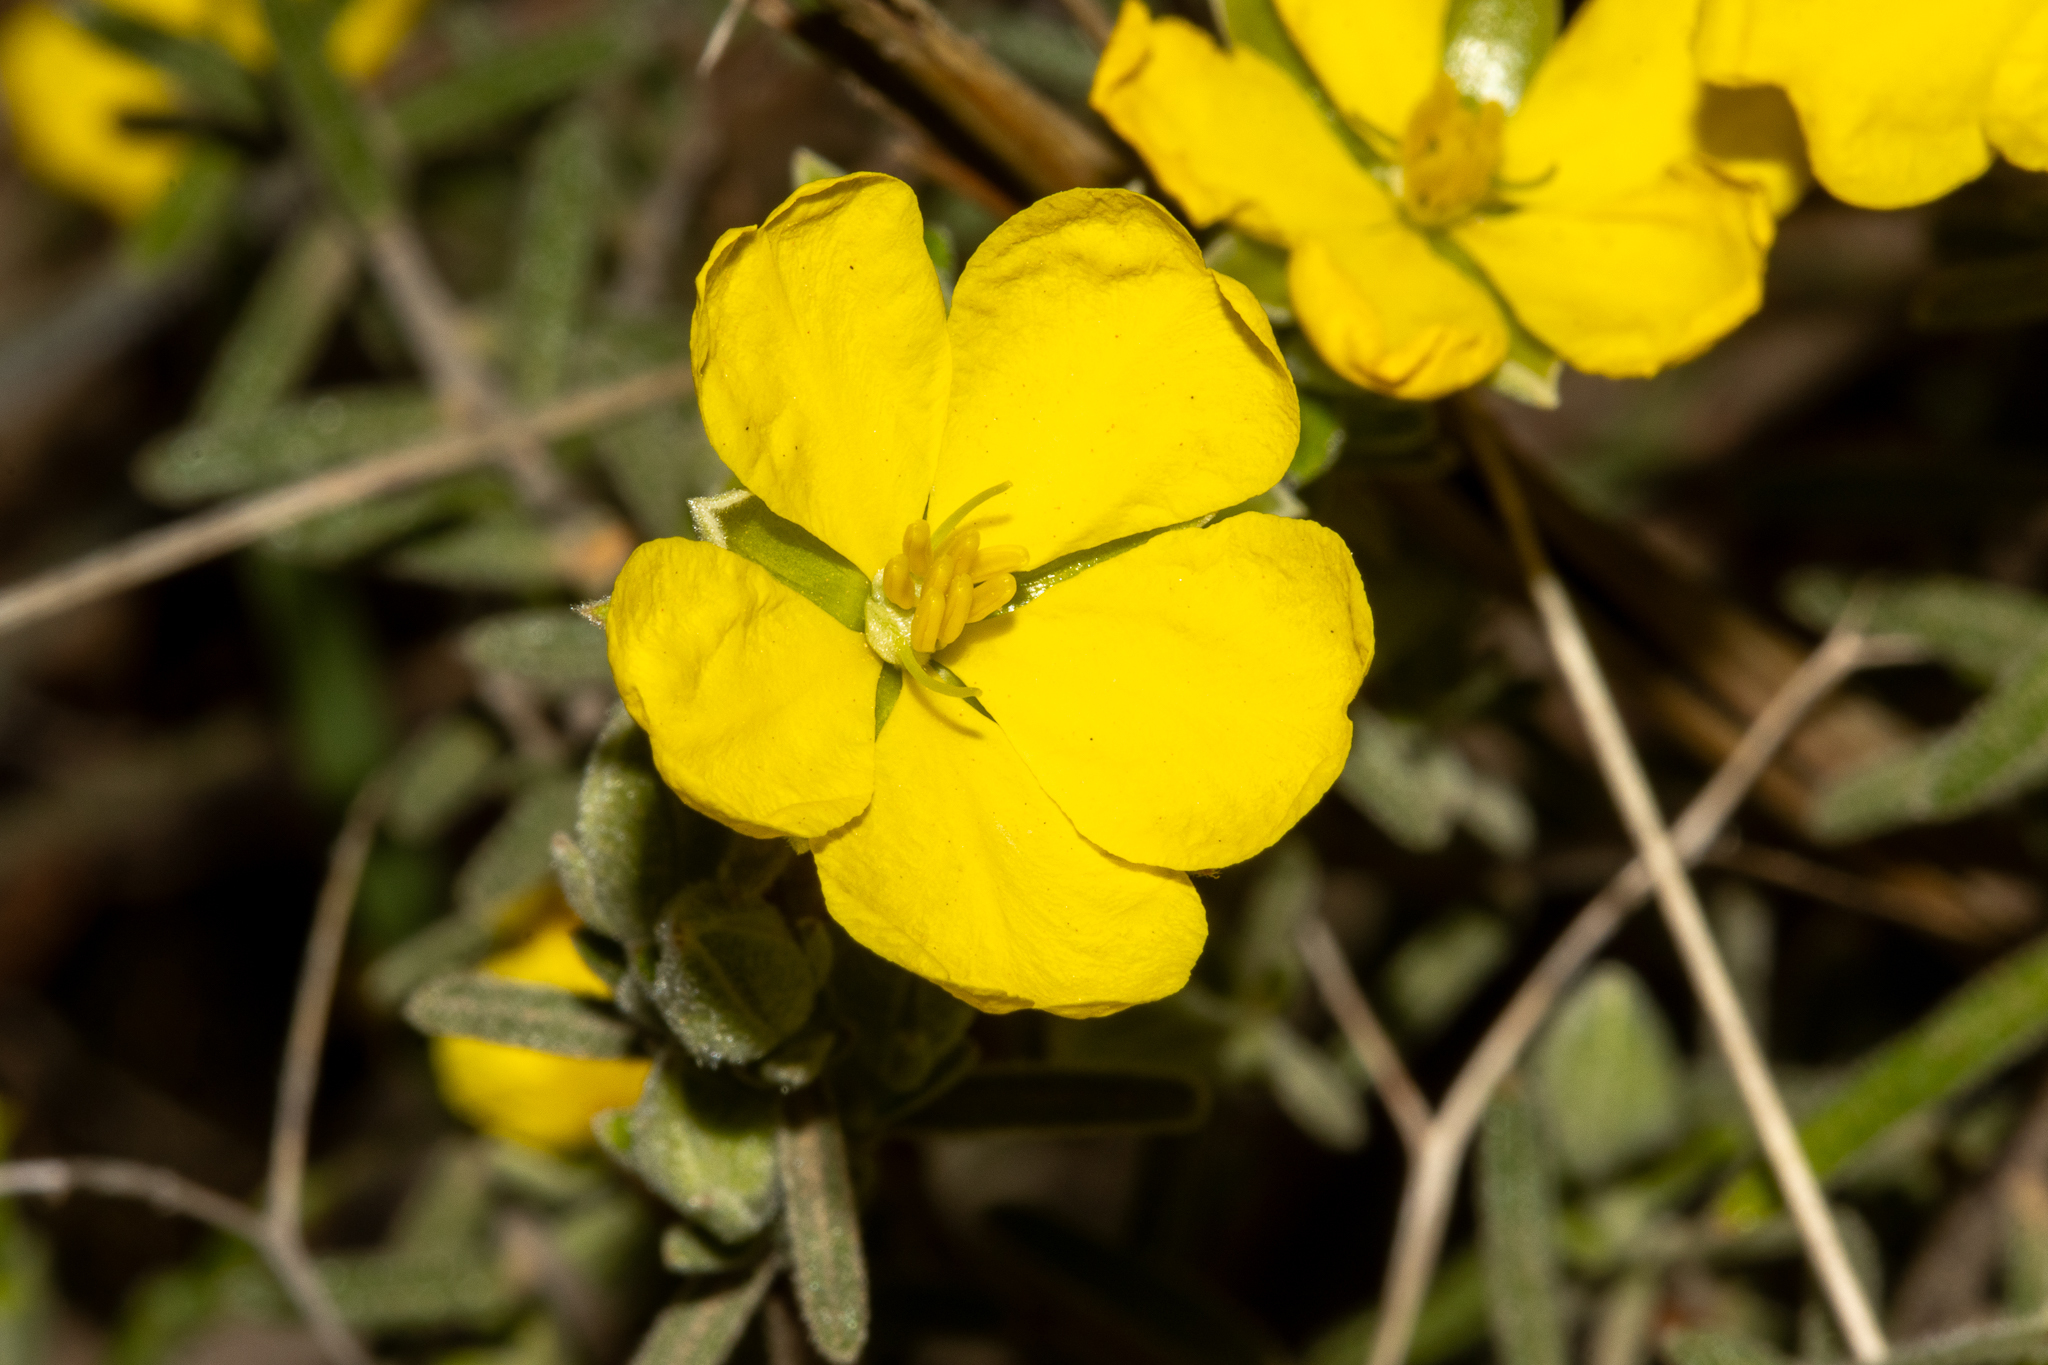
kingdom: Plantae
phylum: Tracheophyta
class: Magnoliopsida
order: Dilleniales
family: Dilleniaceae
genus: Hibbertia
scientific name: Hibbertia australis
